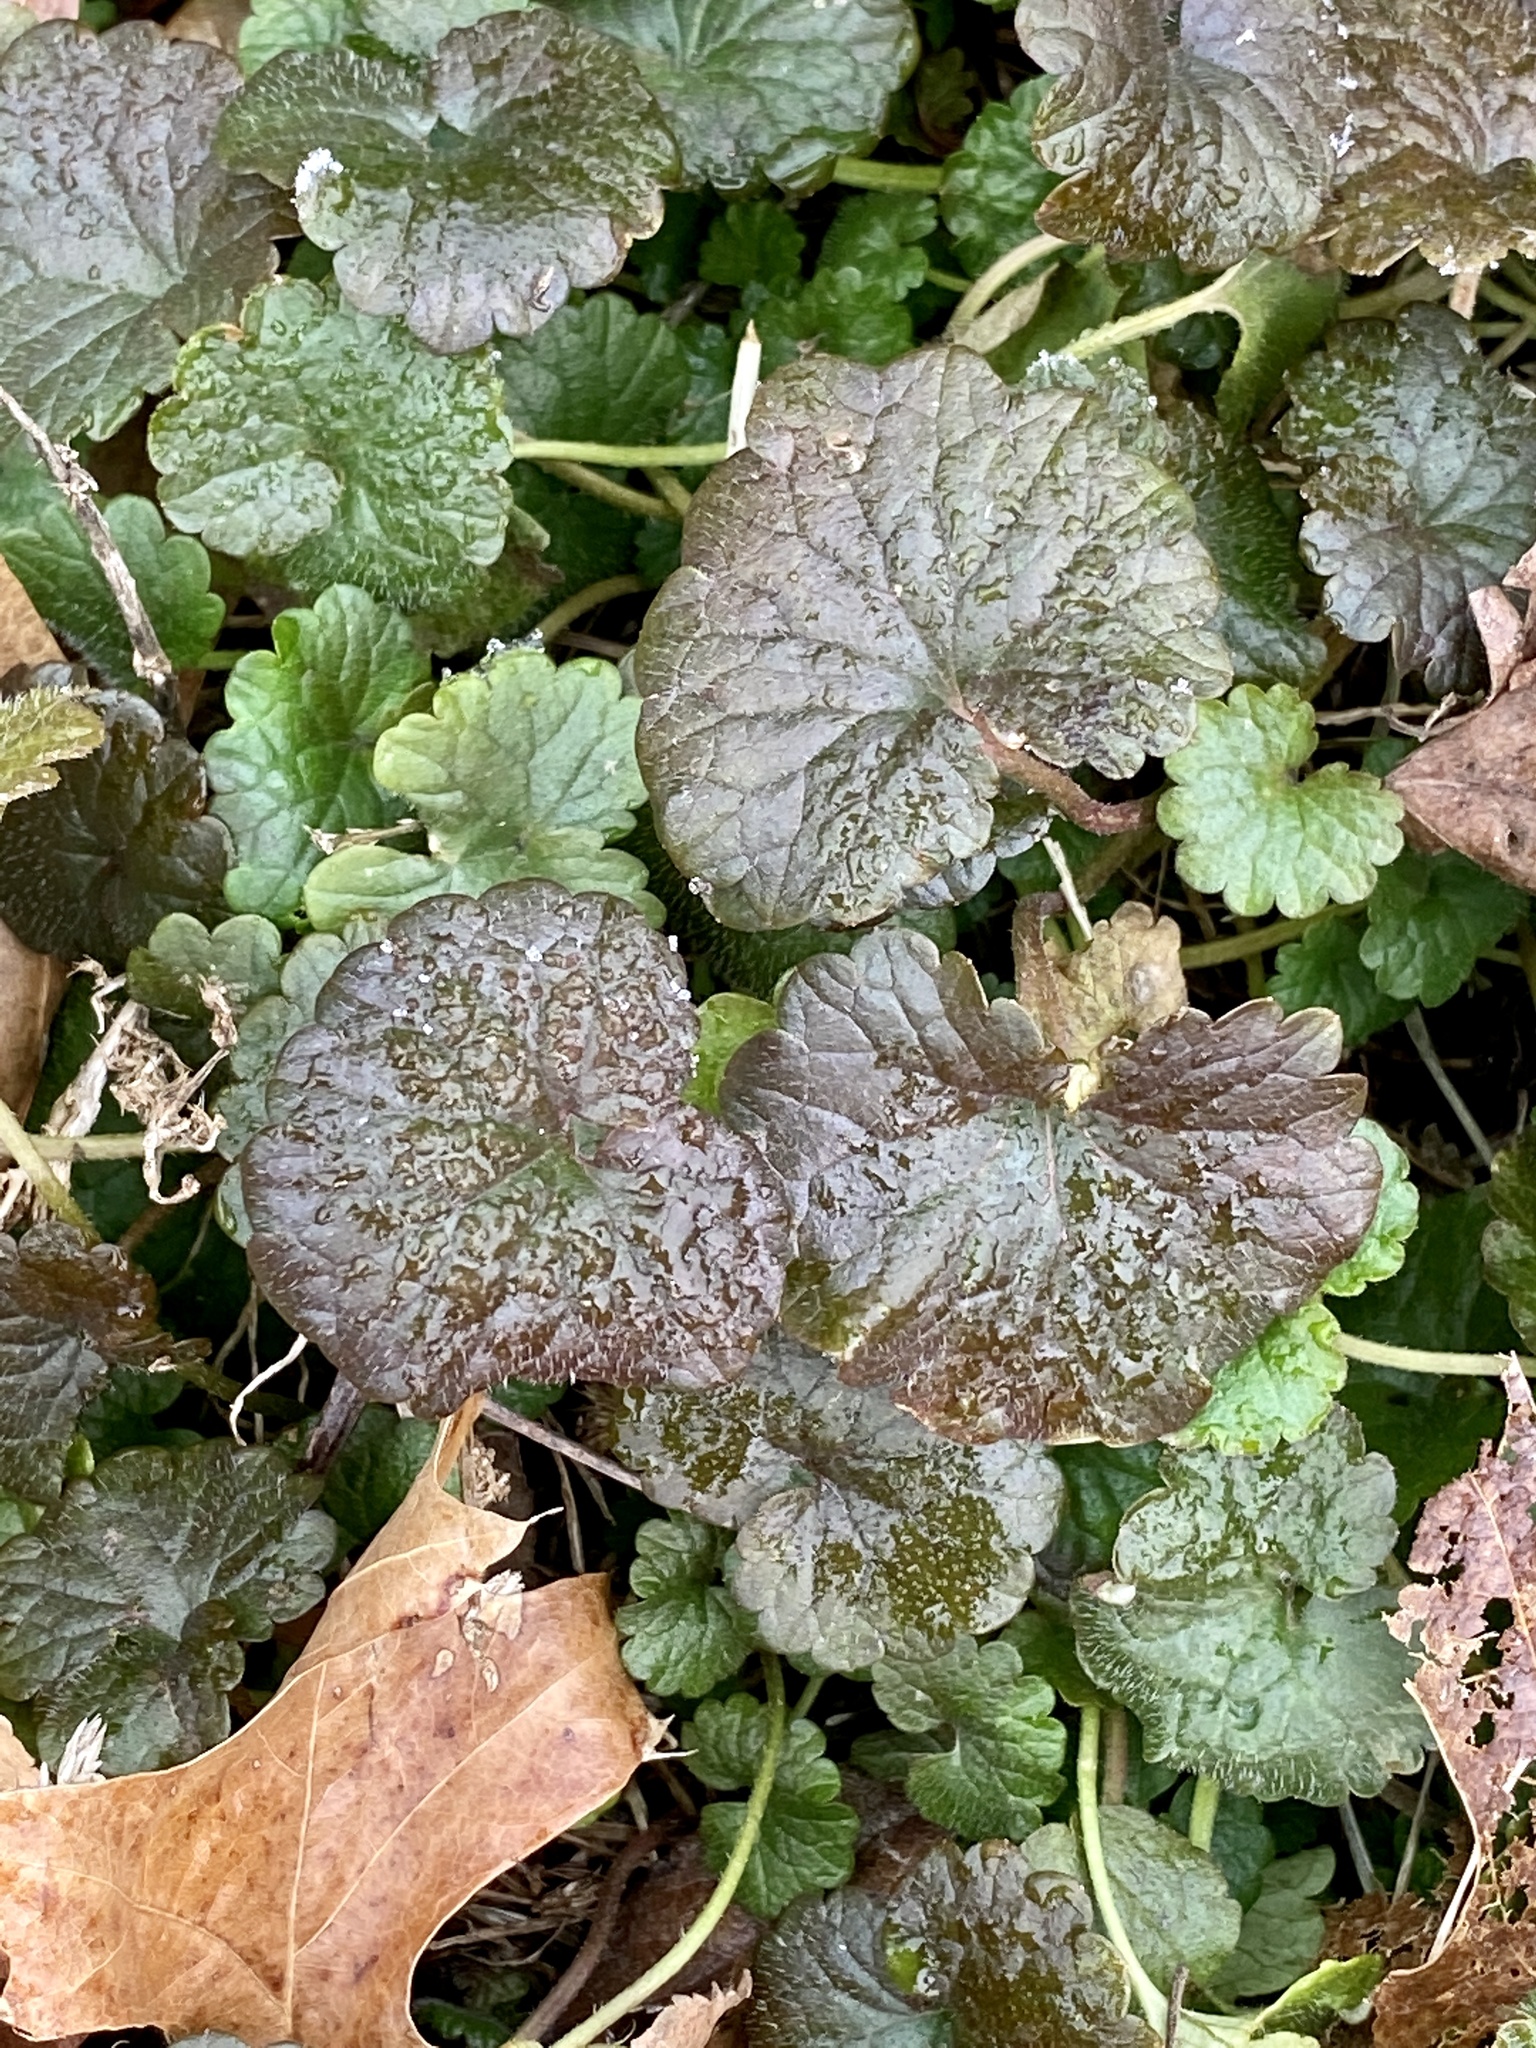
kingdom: Plantae
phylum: Tracheophyta
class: Magnoliopsida
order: Lamiales
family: Lamiaceae
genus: Glechoma
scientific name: Glechoma hederacea
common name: Ground ivy
